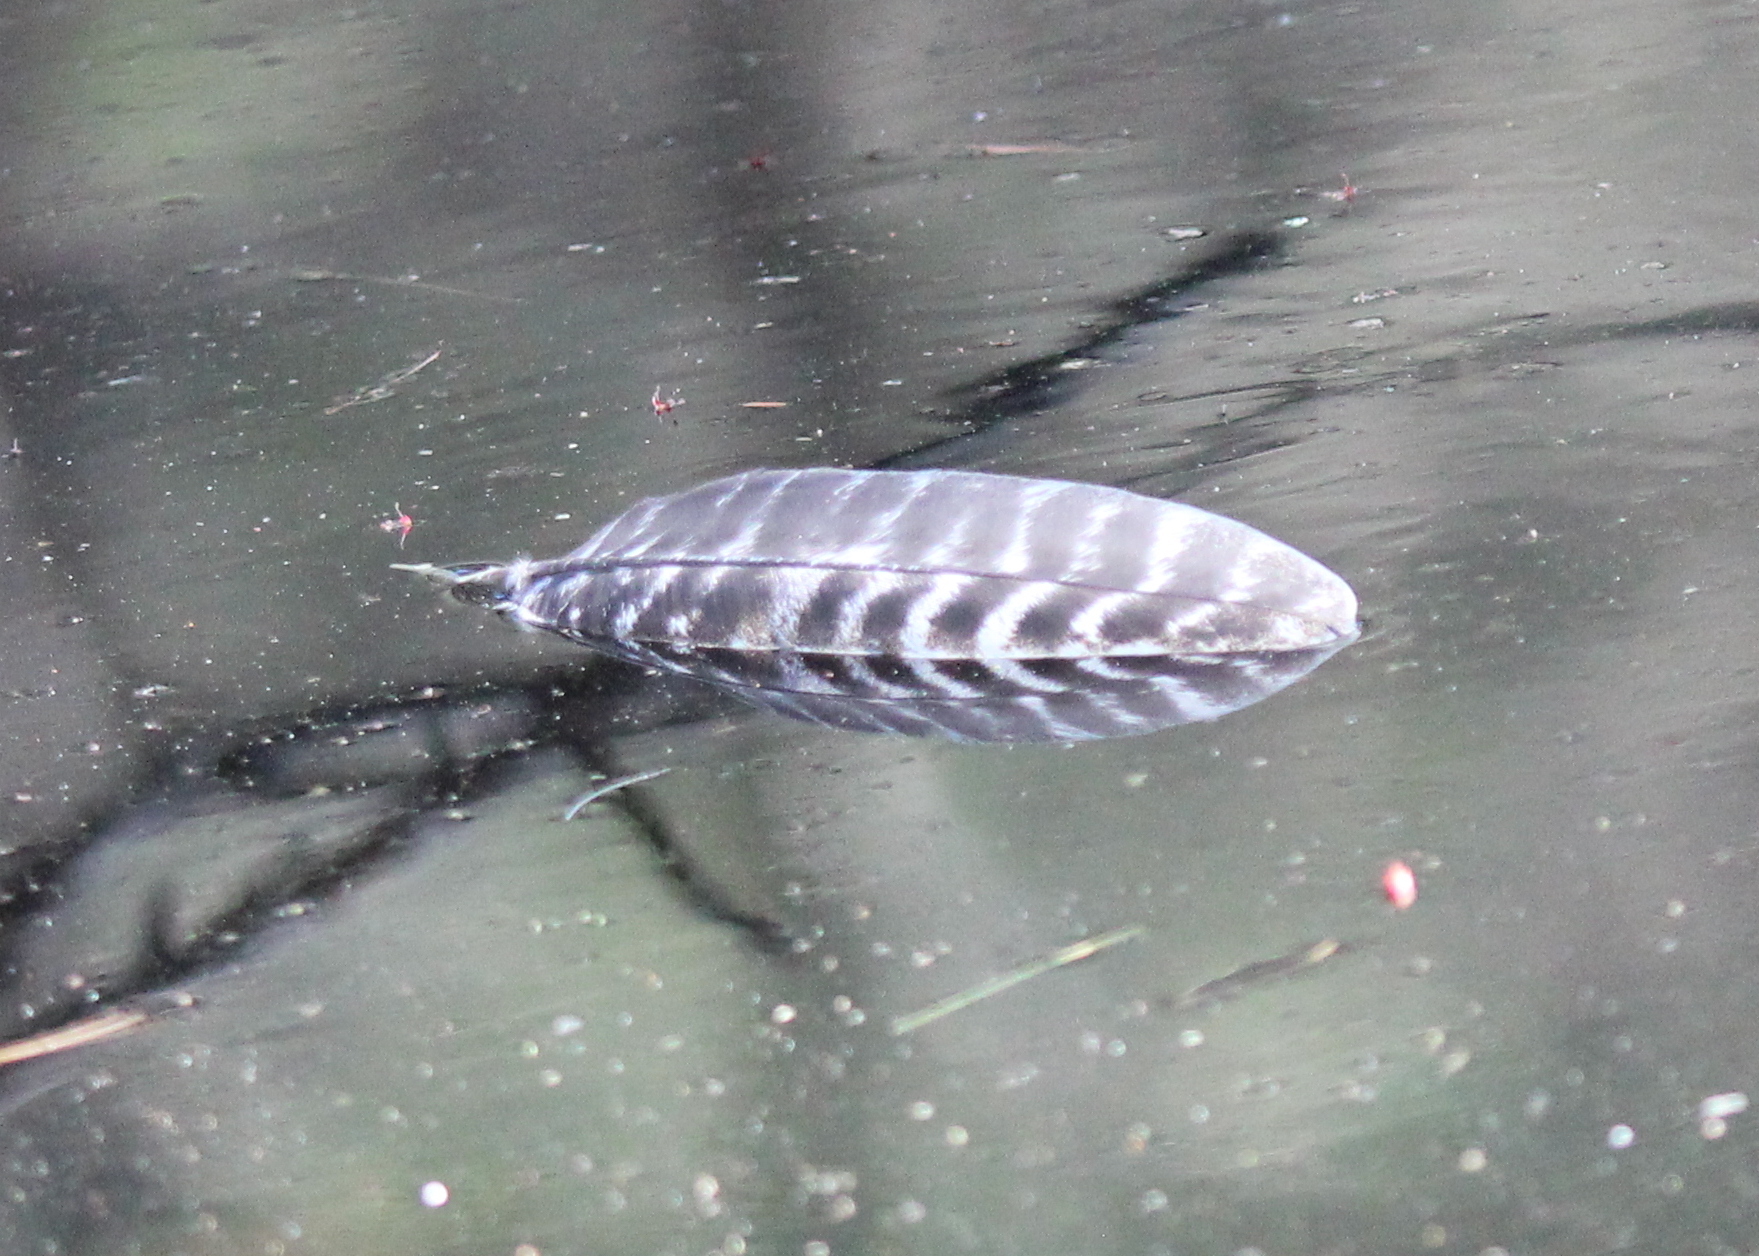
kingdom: Animalia
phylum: Chordata
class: Aves
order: Galliformes
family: Phasianidae
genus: Meleagris
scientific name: Meleagris gallopavo
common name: Wild turkey
